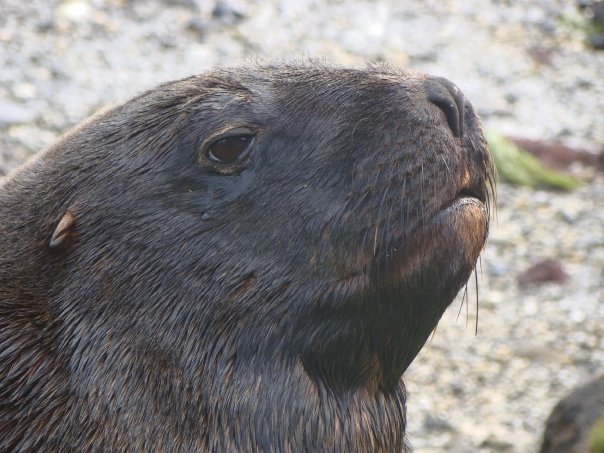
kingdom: Animalia
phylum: Chordata
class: Mammalia
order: Carnivora
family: Otariidae
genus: Phocarctos
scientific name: Phocarctos hookeri
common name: New zealand sea lion
